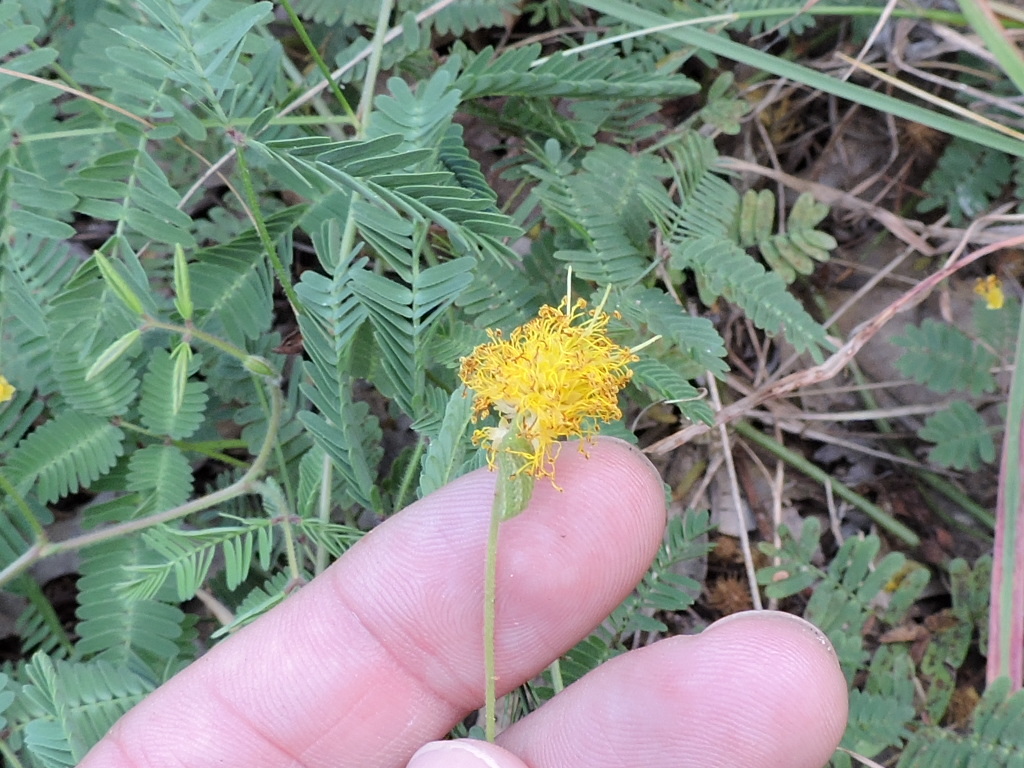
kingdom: Plantae
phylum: Tracheophyta
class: Magnoliopsida
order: Fabales
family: Fabaceae
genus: Neptunia
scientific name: Neptunia lutea
